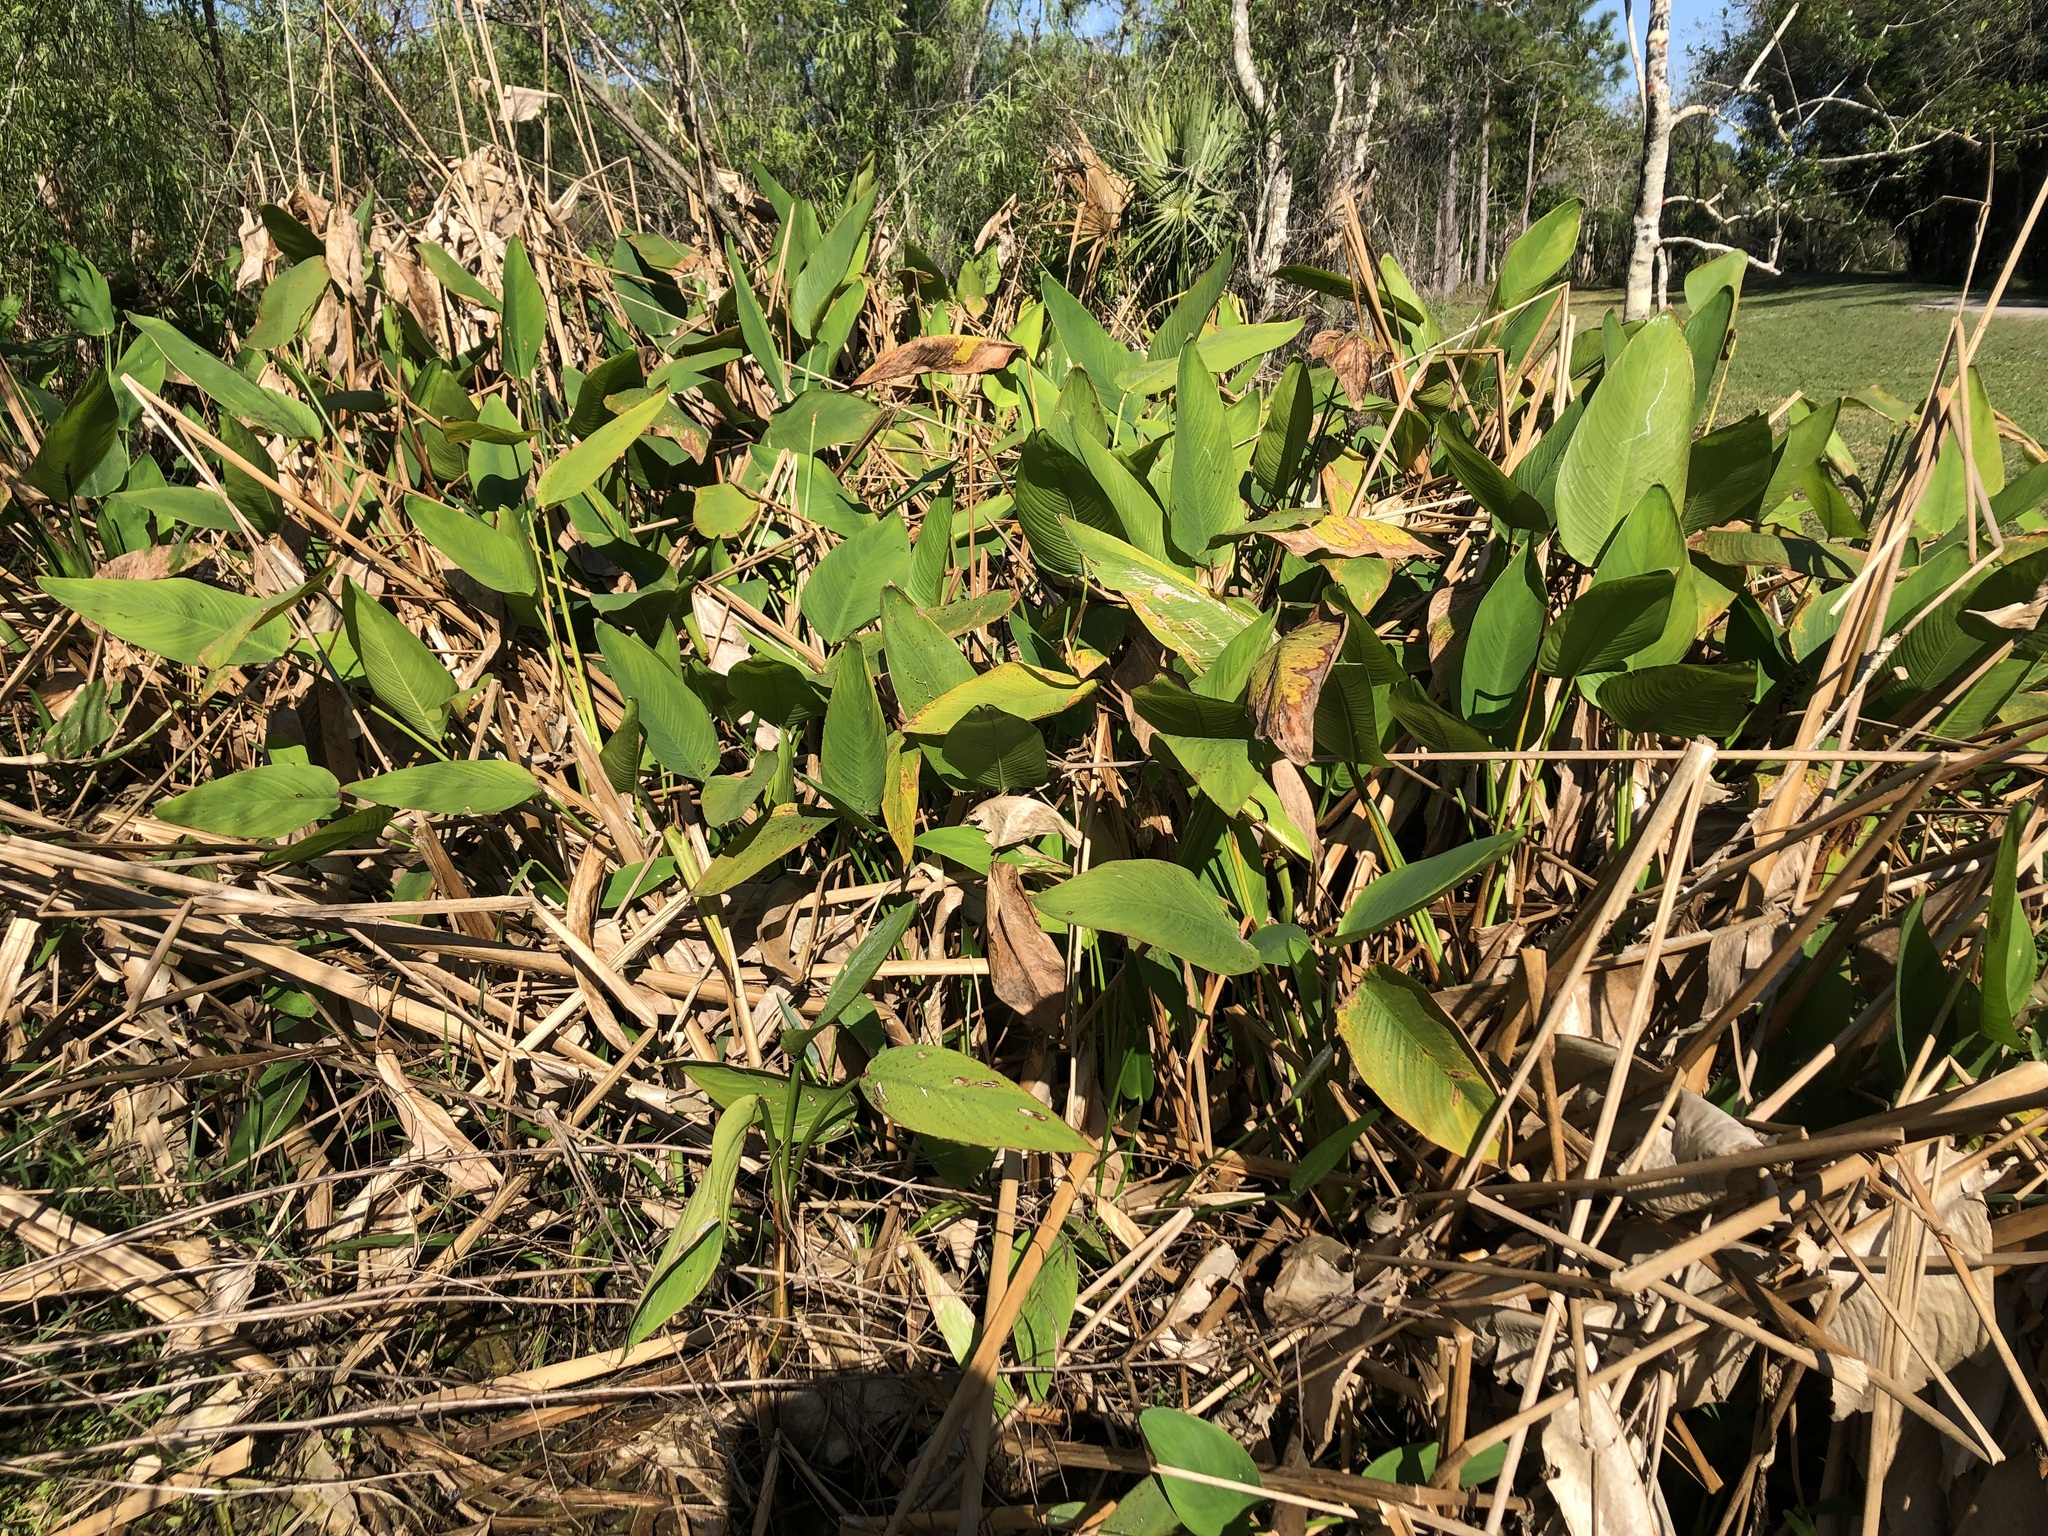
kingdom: Plantae
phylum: Tracheophyta
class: Liliopsida
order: Zingiberales
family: Marantaceae
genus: Thalia
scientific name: Thalia geniculata
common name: Arrowroot
